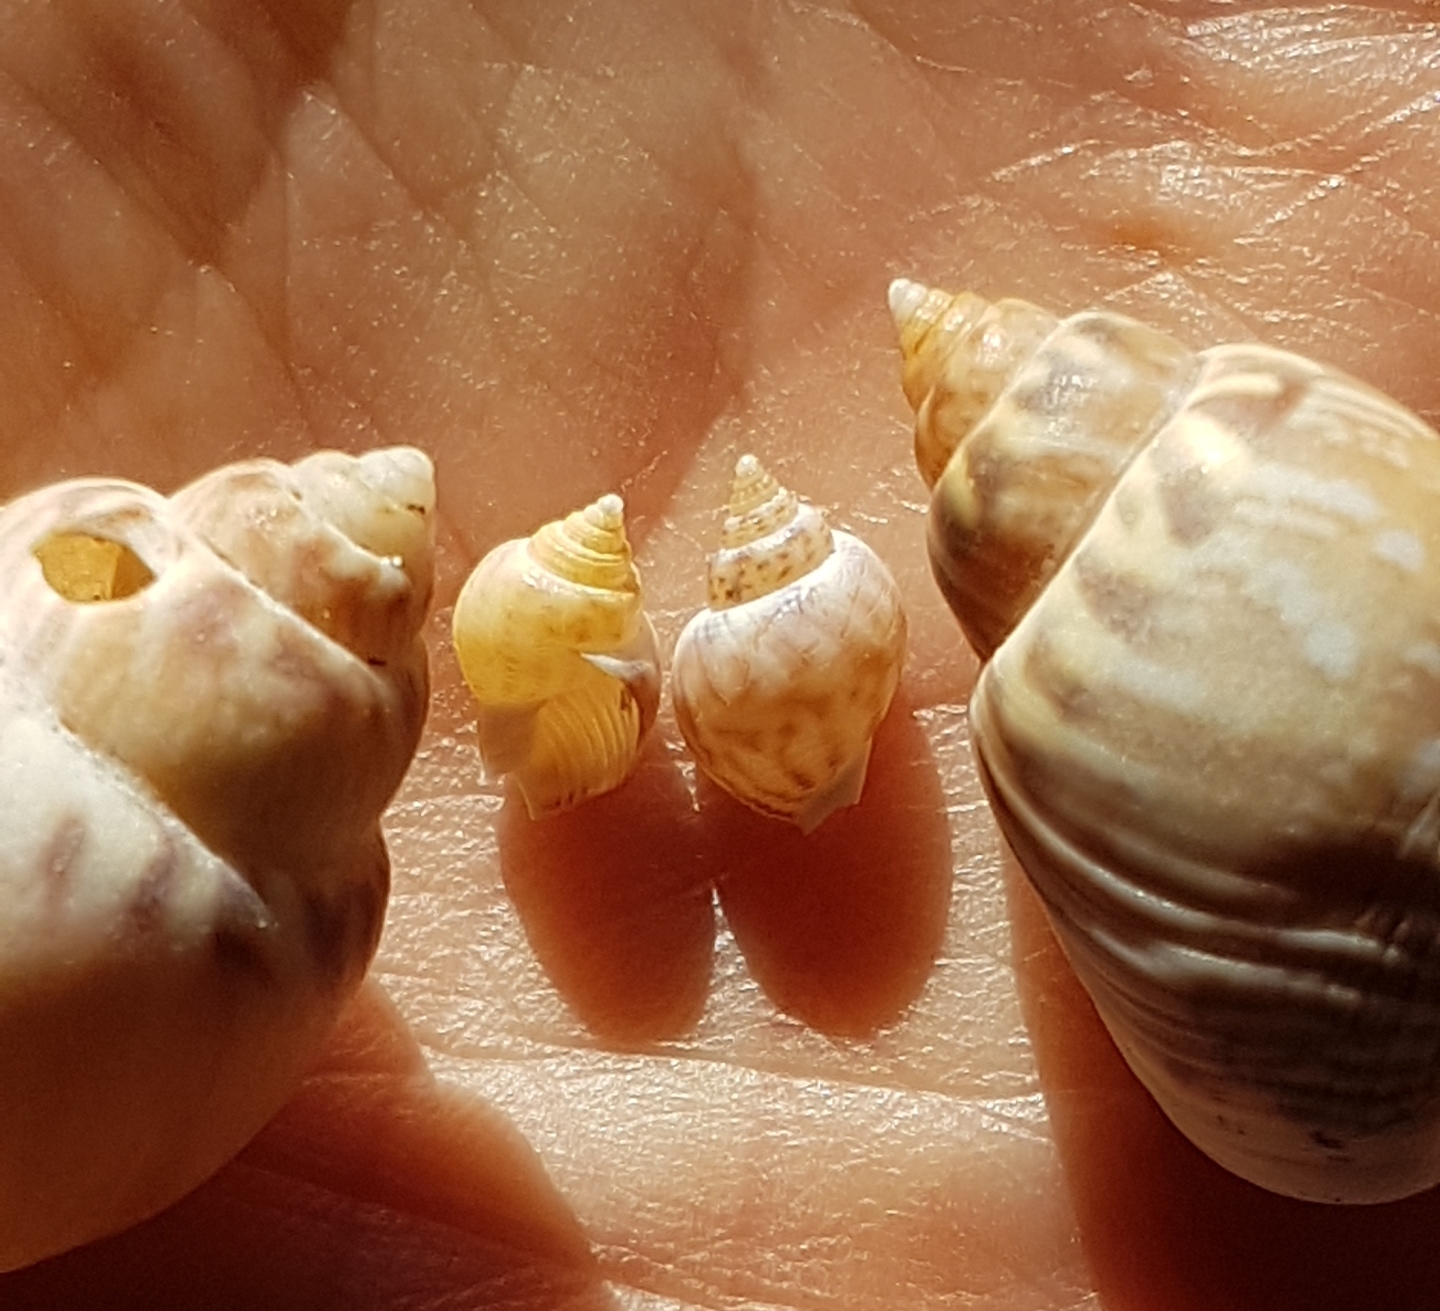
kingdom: Animalia
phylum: Mollusca
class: Gastropoda
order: Neogastropoda
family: Nassariidae
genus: Tritia
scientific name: Tritia mutabilis
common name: Mutable nassa
